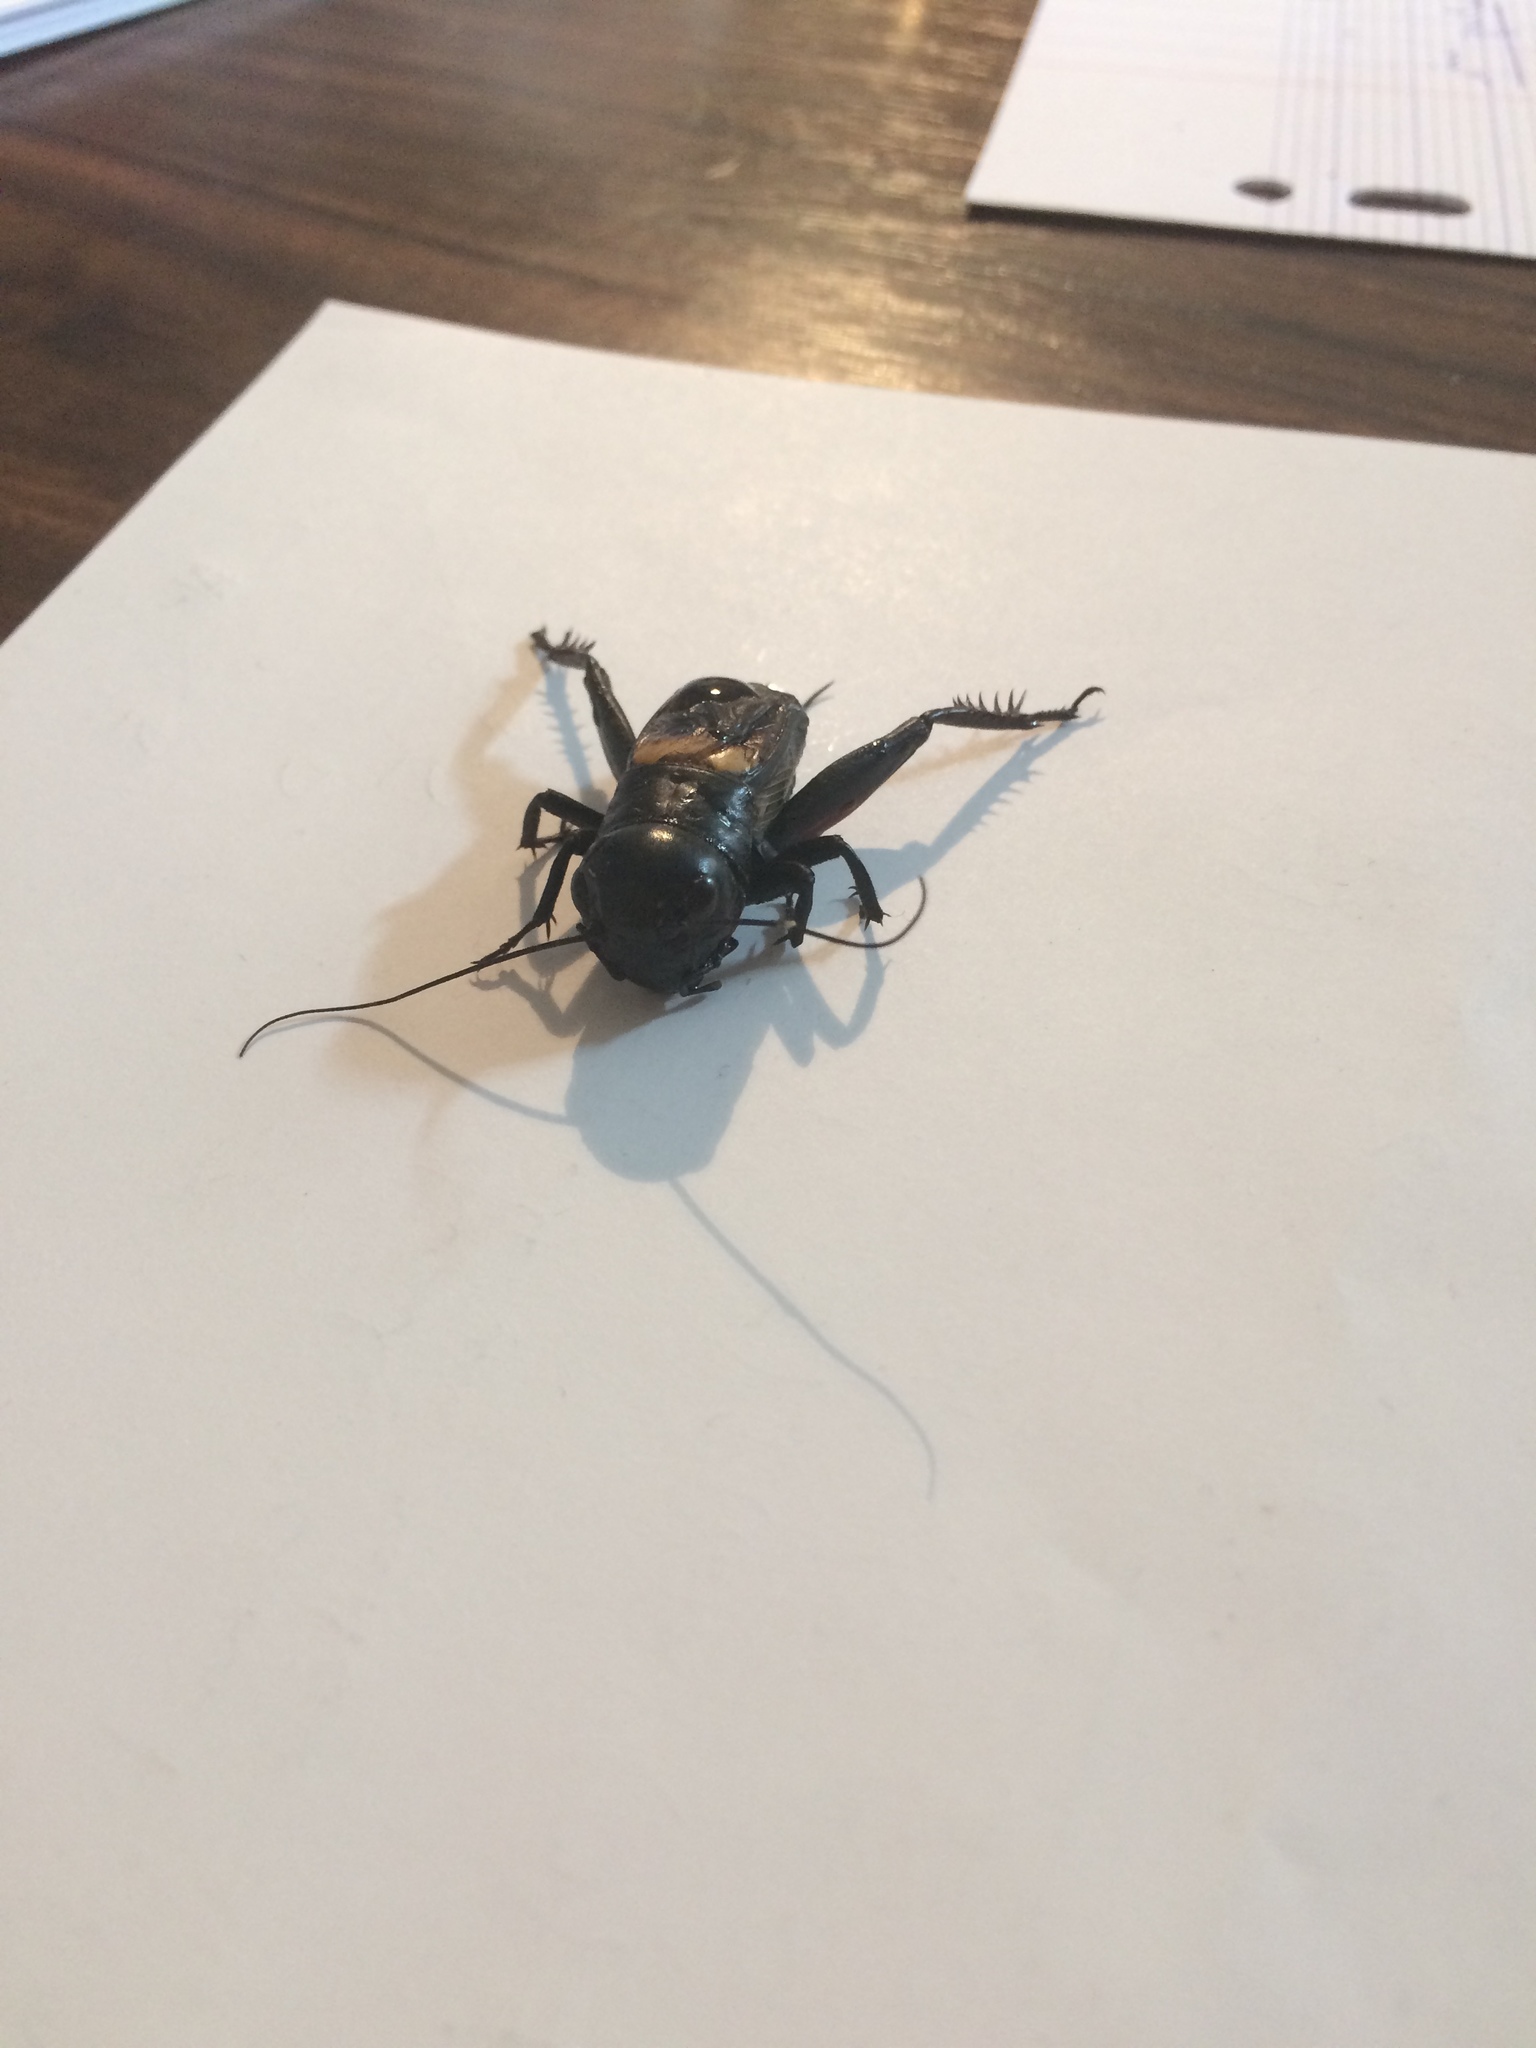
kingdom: Animalia
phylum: Arthropoda
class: Insecta
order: Orthoptera
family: Gryllidae
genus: Gryllus
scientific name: Gryllus campestris
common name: Field cricket
